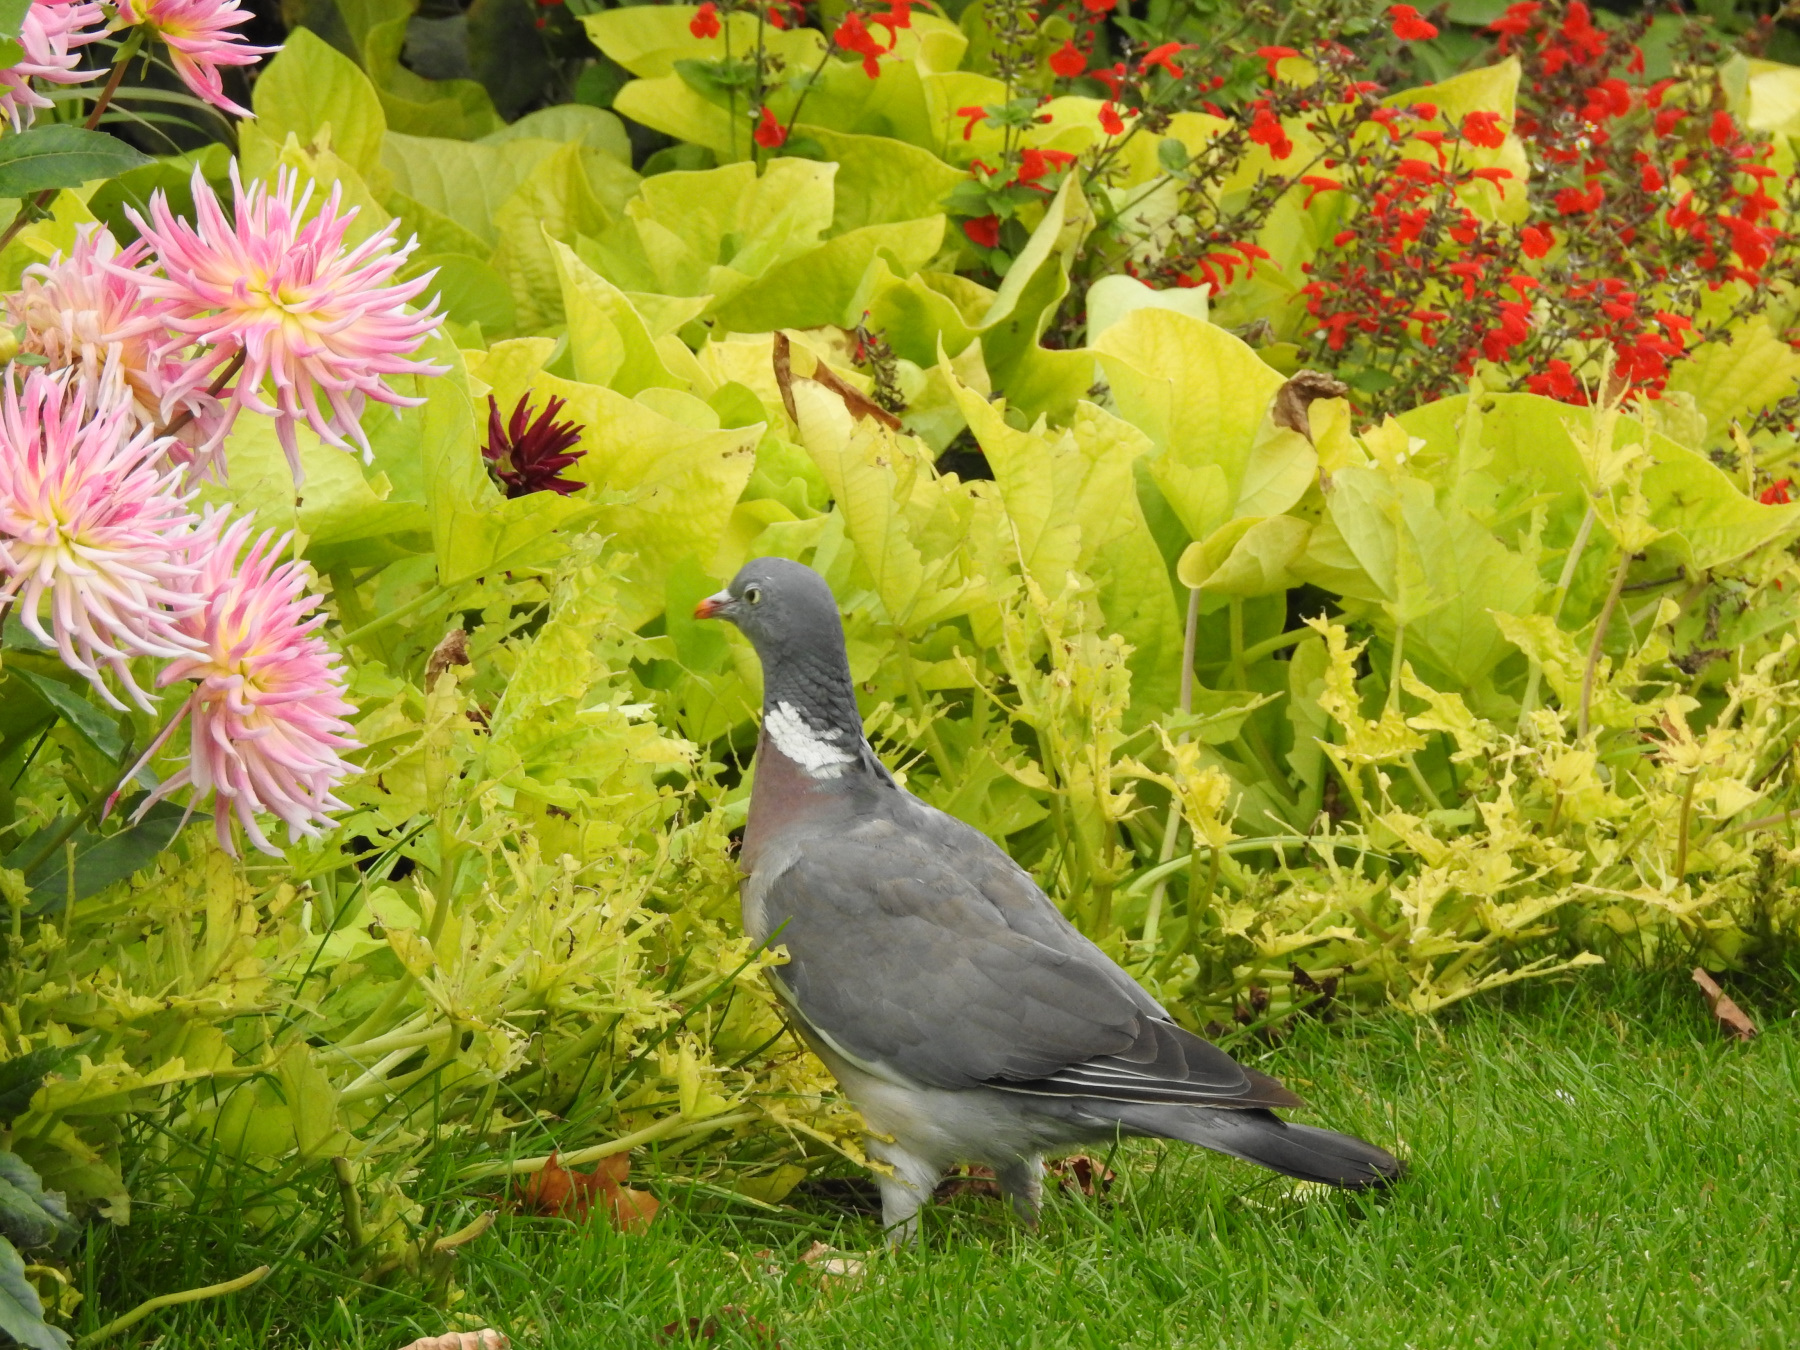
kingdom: Animalia
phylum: Chordata
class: Aves
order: Columbiformes
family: Columbidae
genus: Columba
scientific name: Columba palumbus
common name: Common wood pigeon
